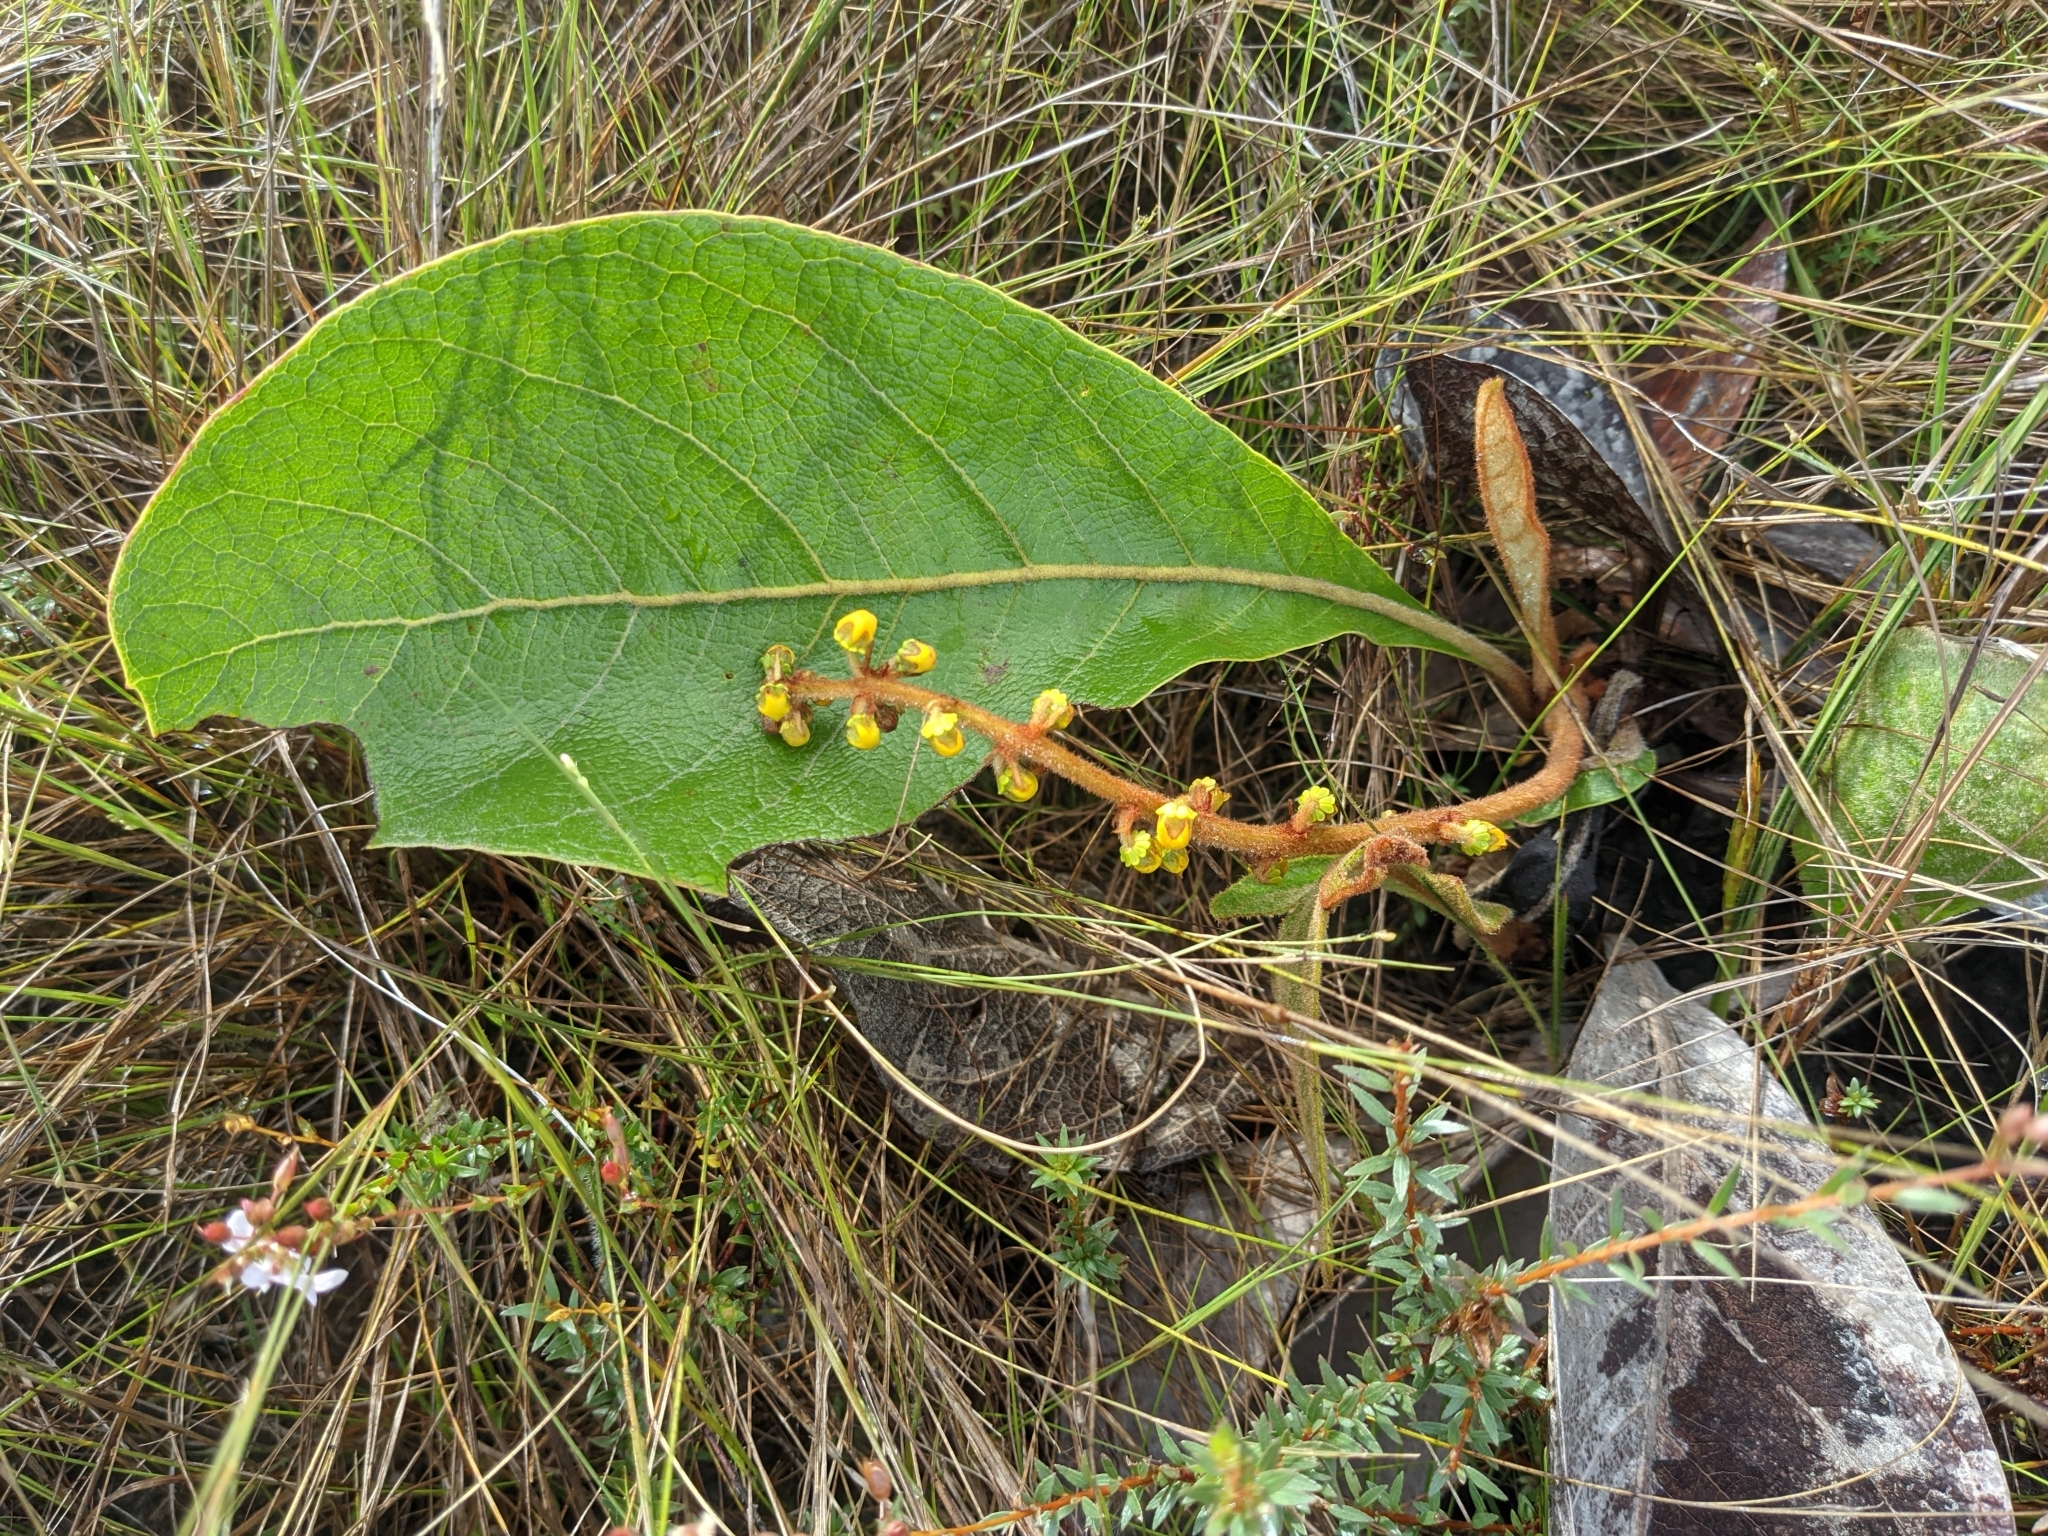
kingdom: Plantae
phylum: Tracheophyta
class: Magnoliopsida
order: Malpighiales
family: Malpighiaceae
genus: Byrsonima
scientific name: Byrsonima verbascifolia
